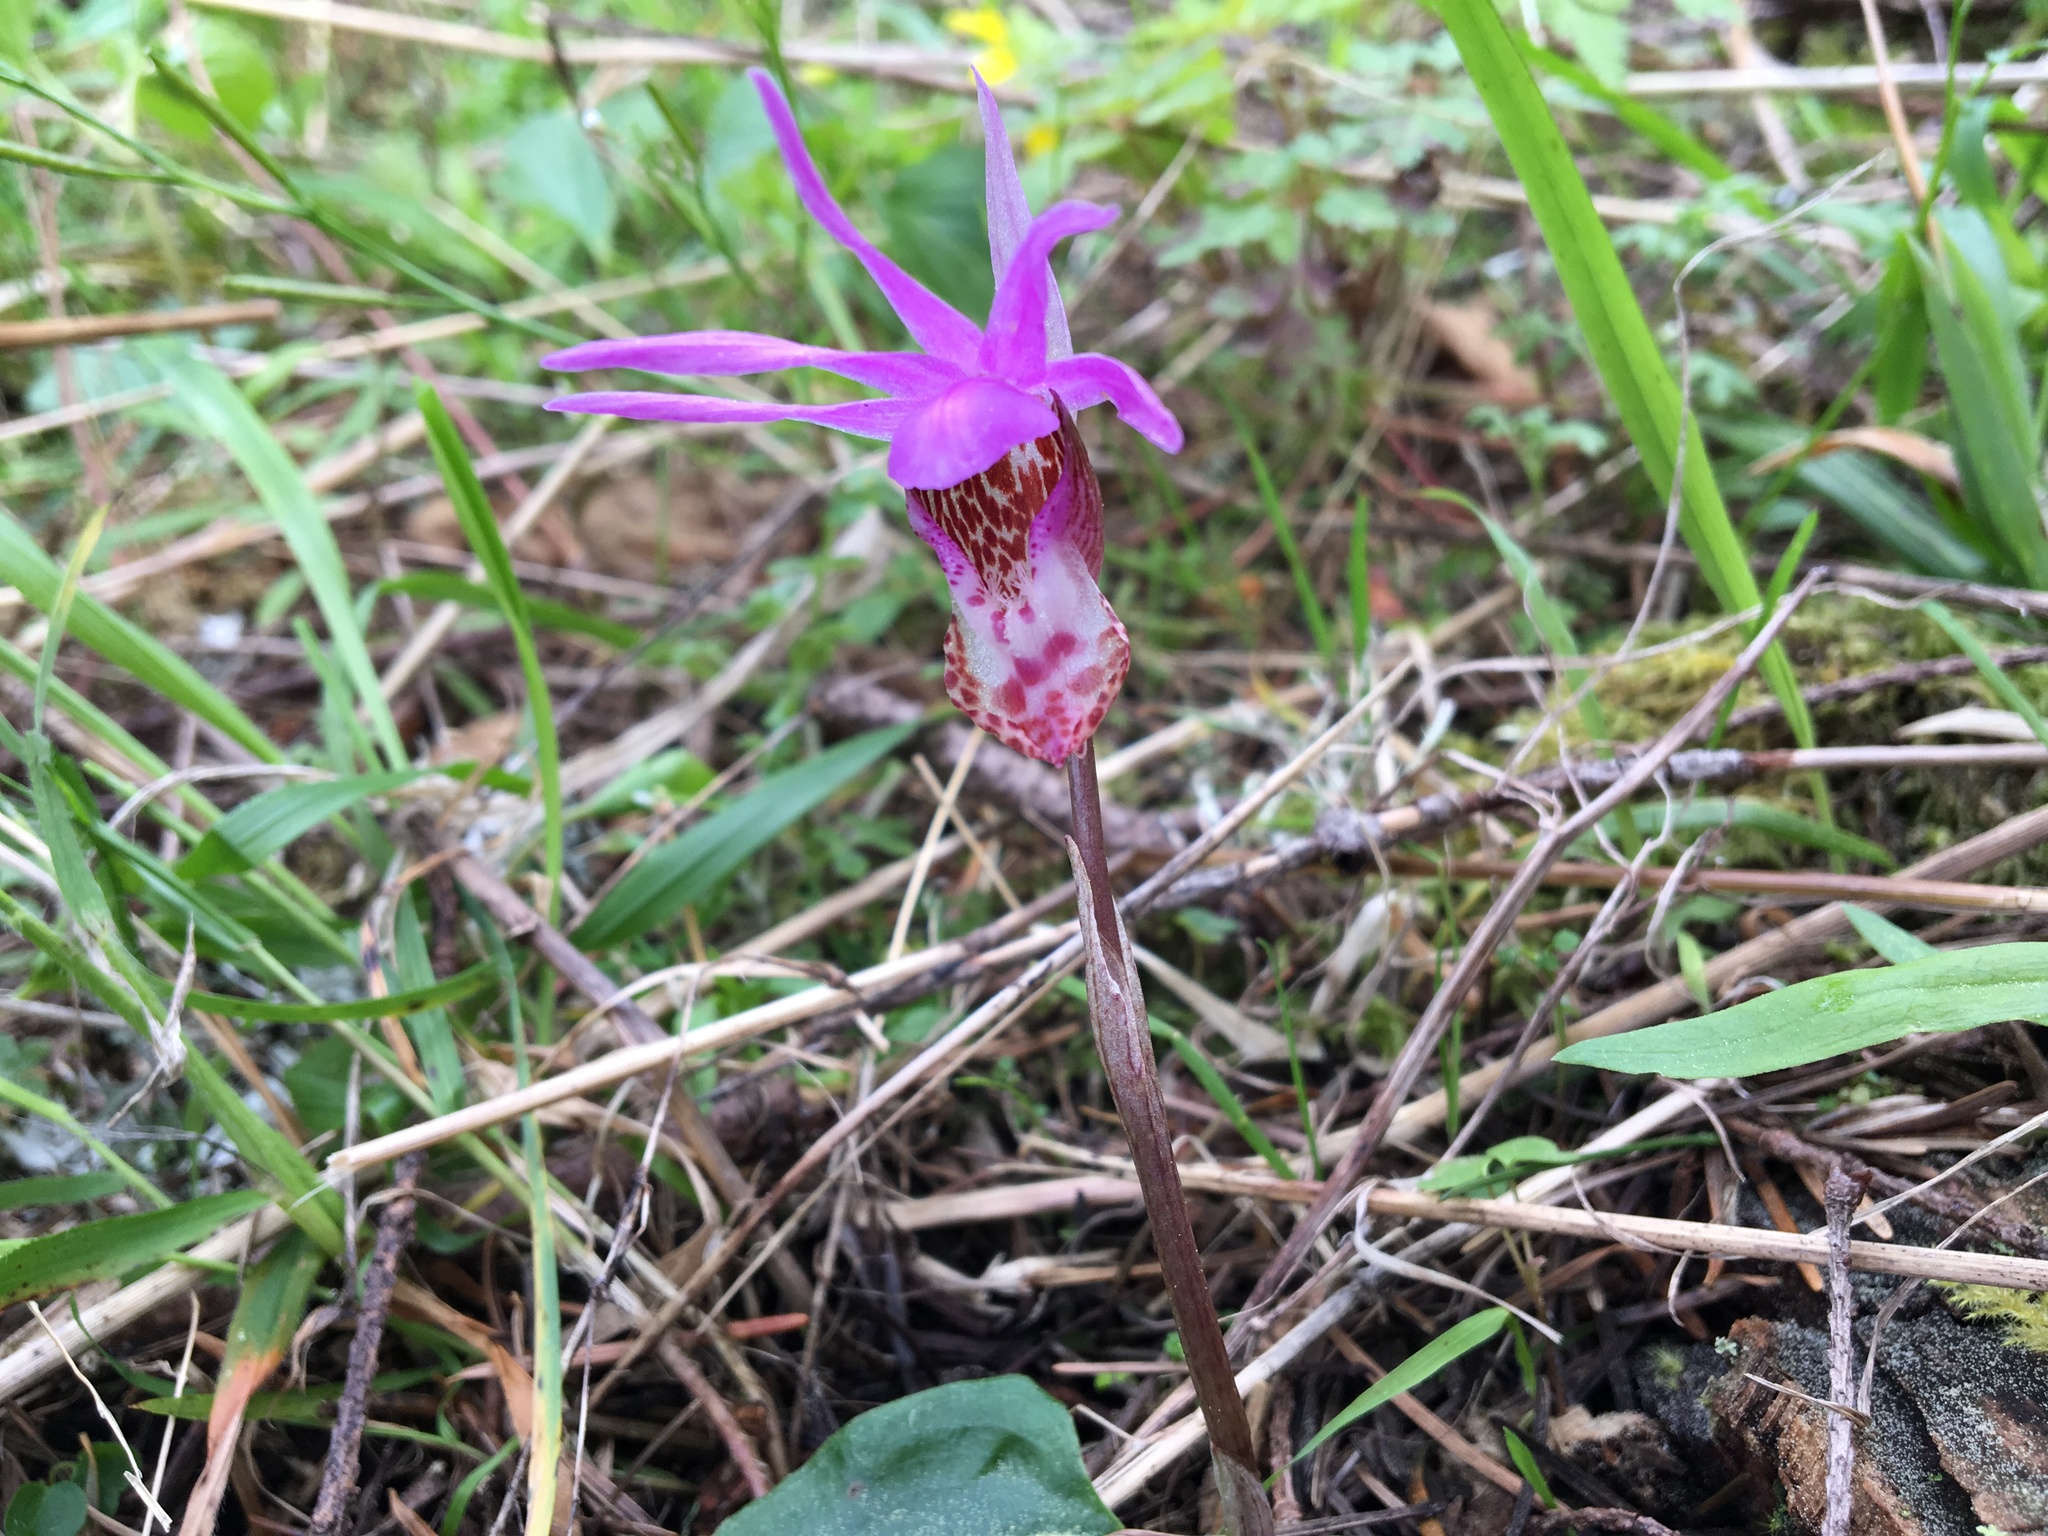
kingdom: Plantae
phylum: Tracheophyta
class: Liliopsida
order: Asparagales
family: Orchidaceae
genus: Calypso
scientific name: Calypso bulbosa
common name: Calypso
